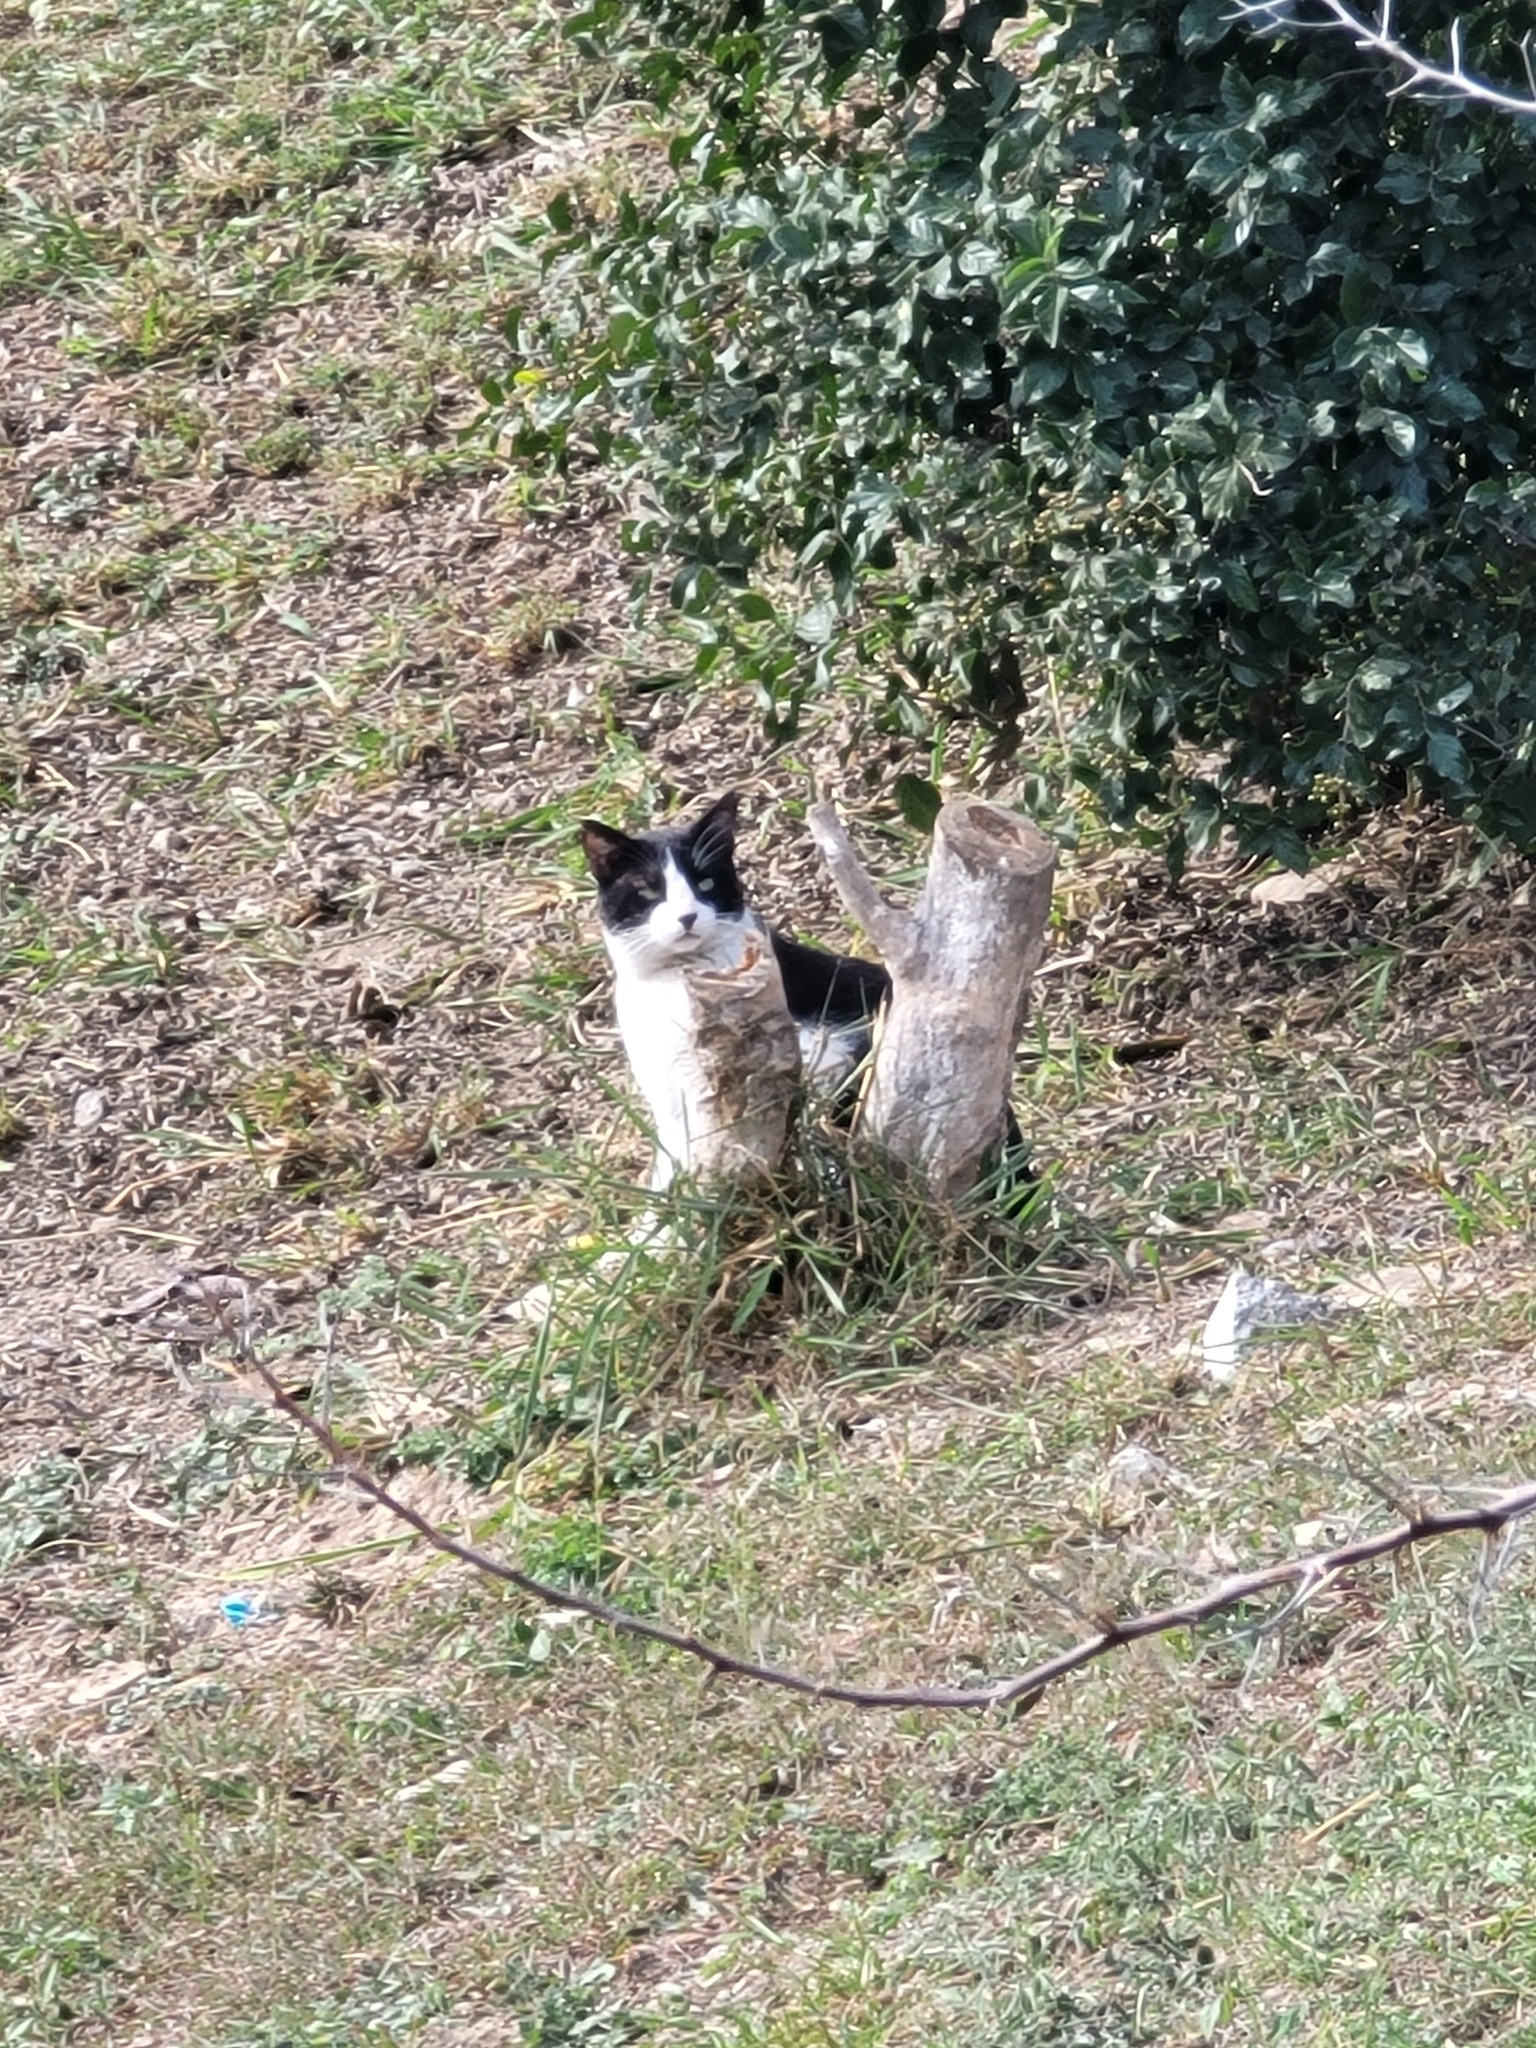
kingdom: Animalia
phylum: Chordata
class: Mammalia
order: Carnivora
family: Felidae
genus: Felis
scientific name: Felis catus
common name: Domestic cat
